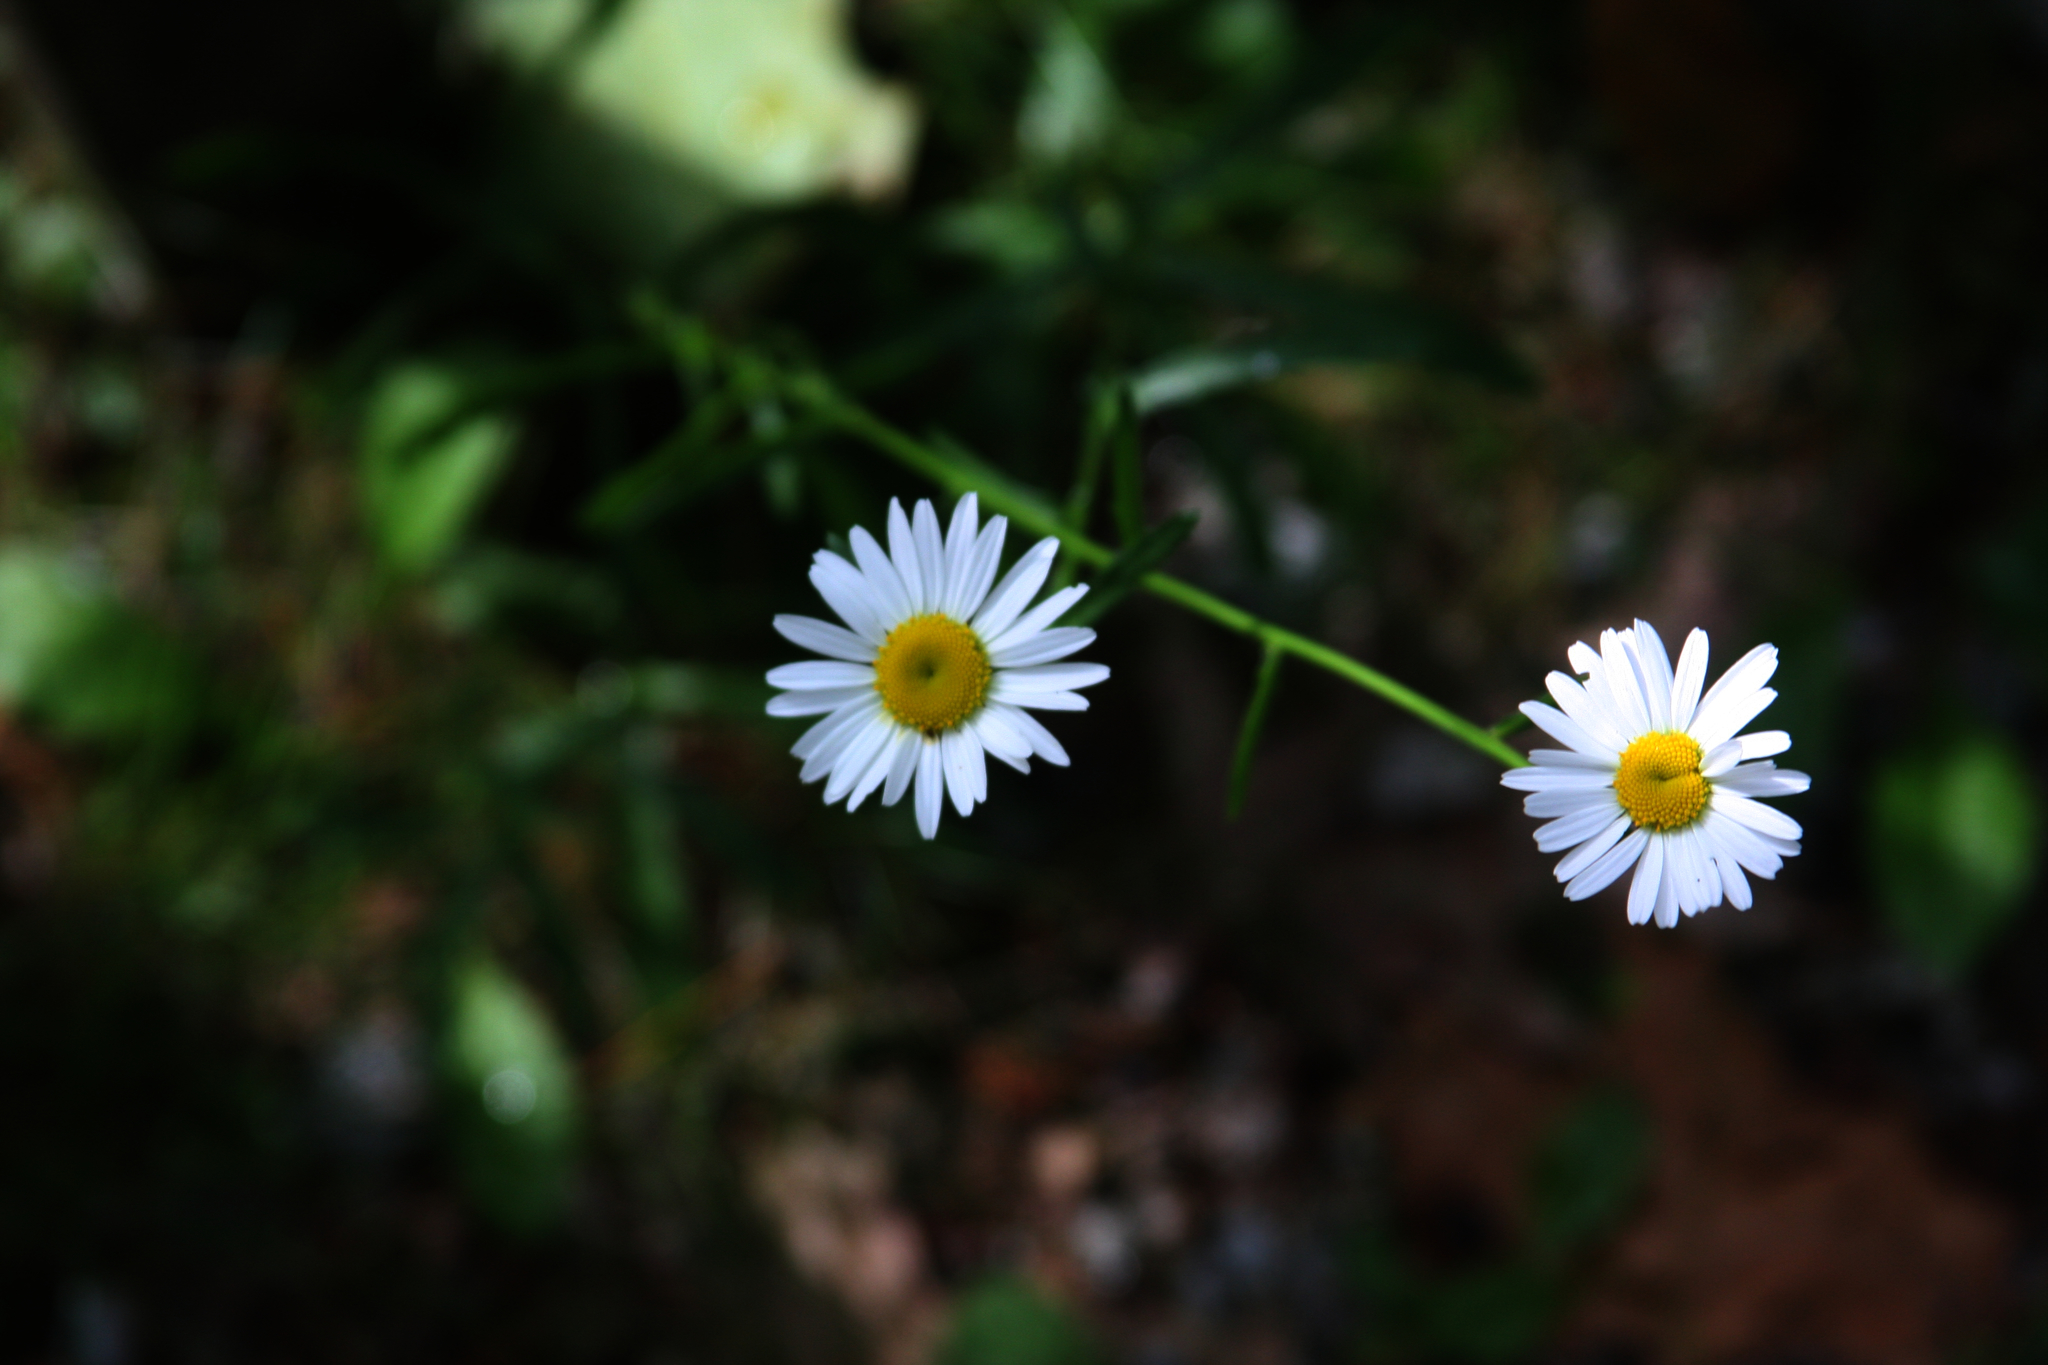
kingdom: Plantae
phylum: Tracheophyta
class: Magnoliopsida
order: Asterales
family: Asteraceae
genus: Leucanthemum
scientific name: Leucanthemum vulgare
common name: Oxeye daisy
